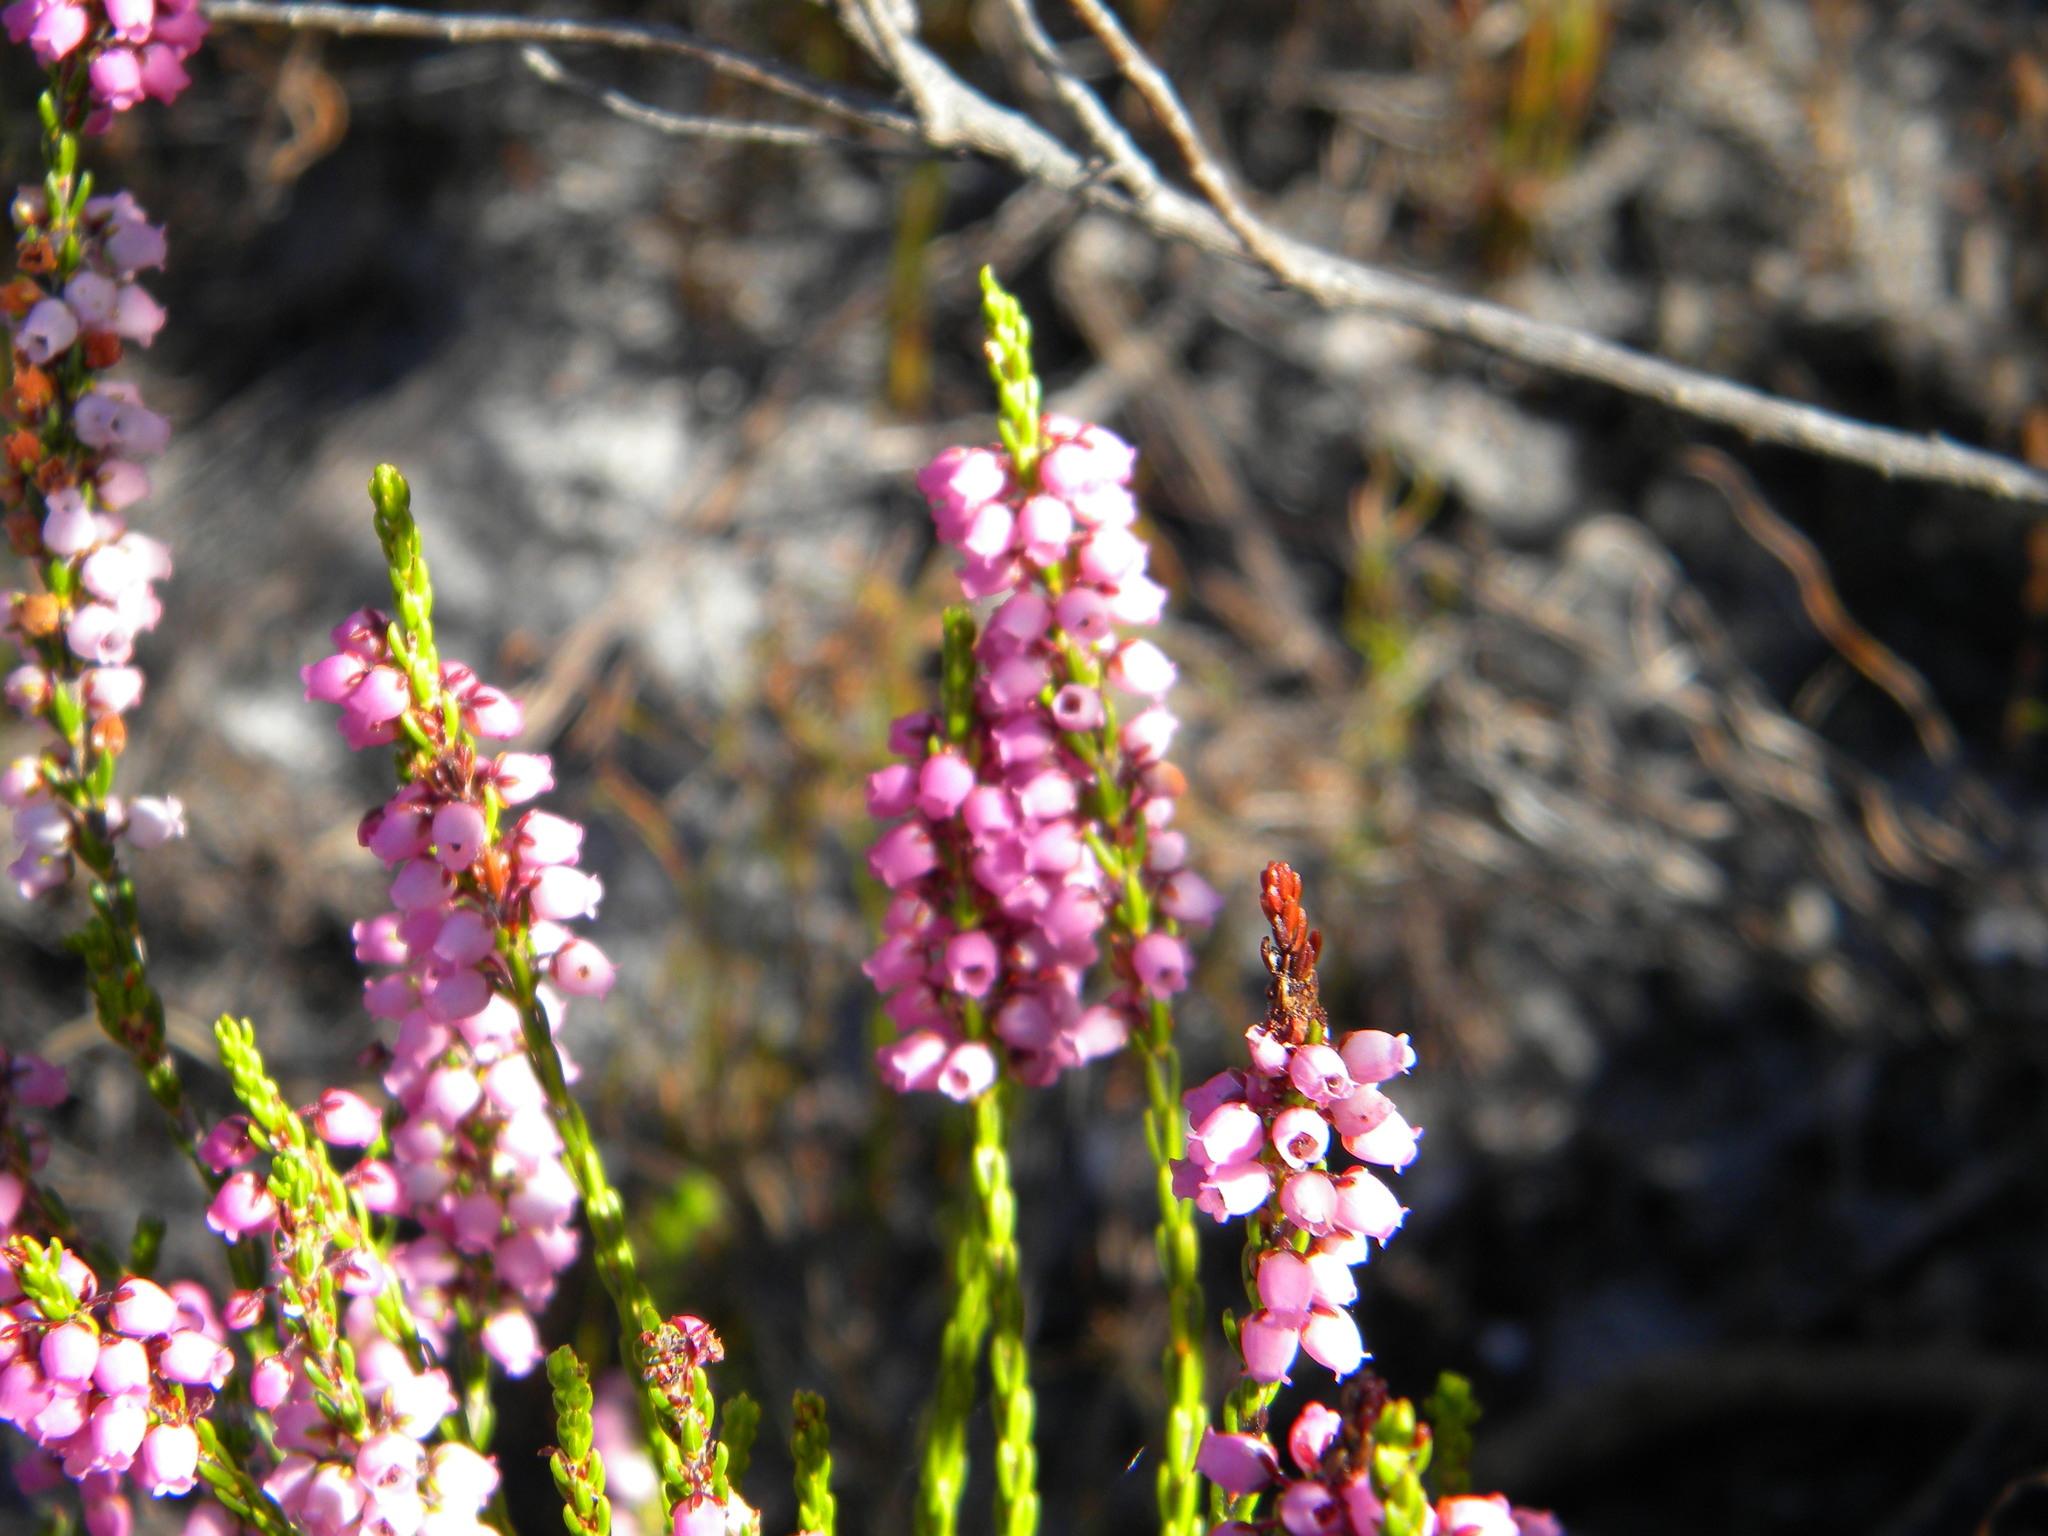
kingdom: Plantae
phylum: Tracheophyta
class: Magnoliopsida
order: Ericales
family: Ericaceae
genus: Erica
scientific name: Erica pulchella
